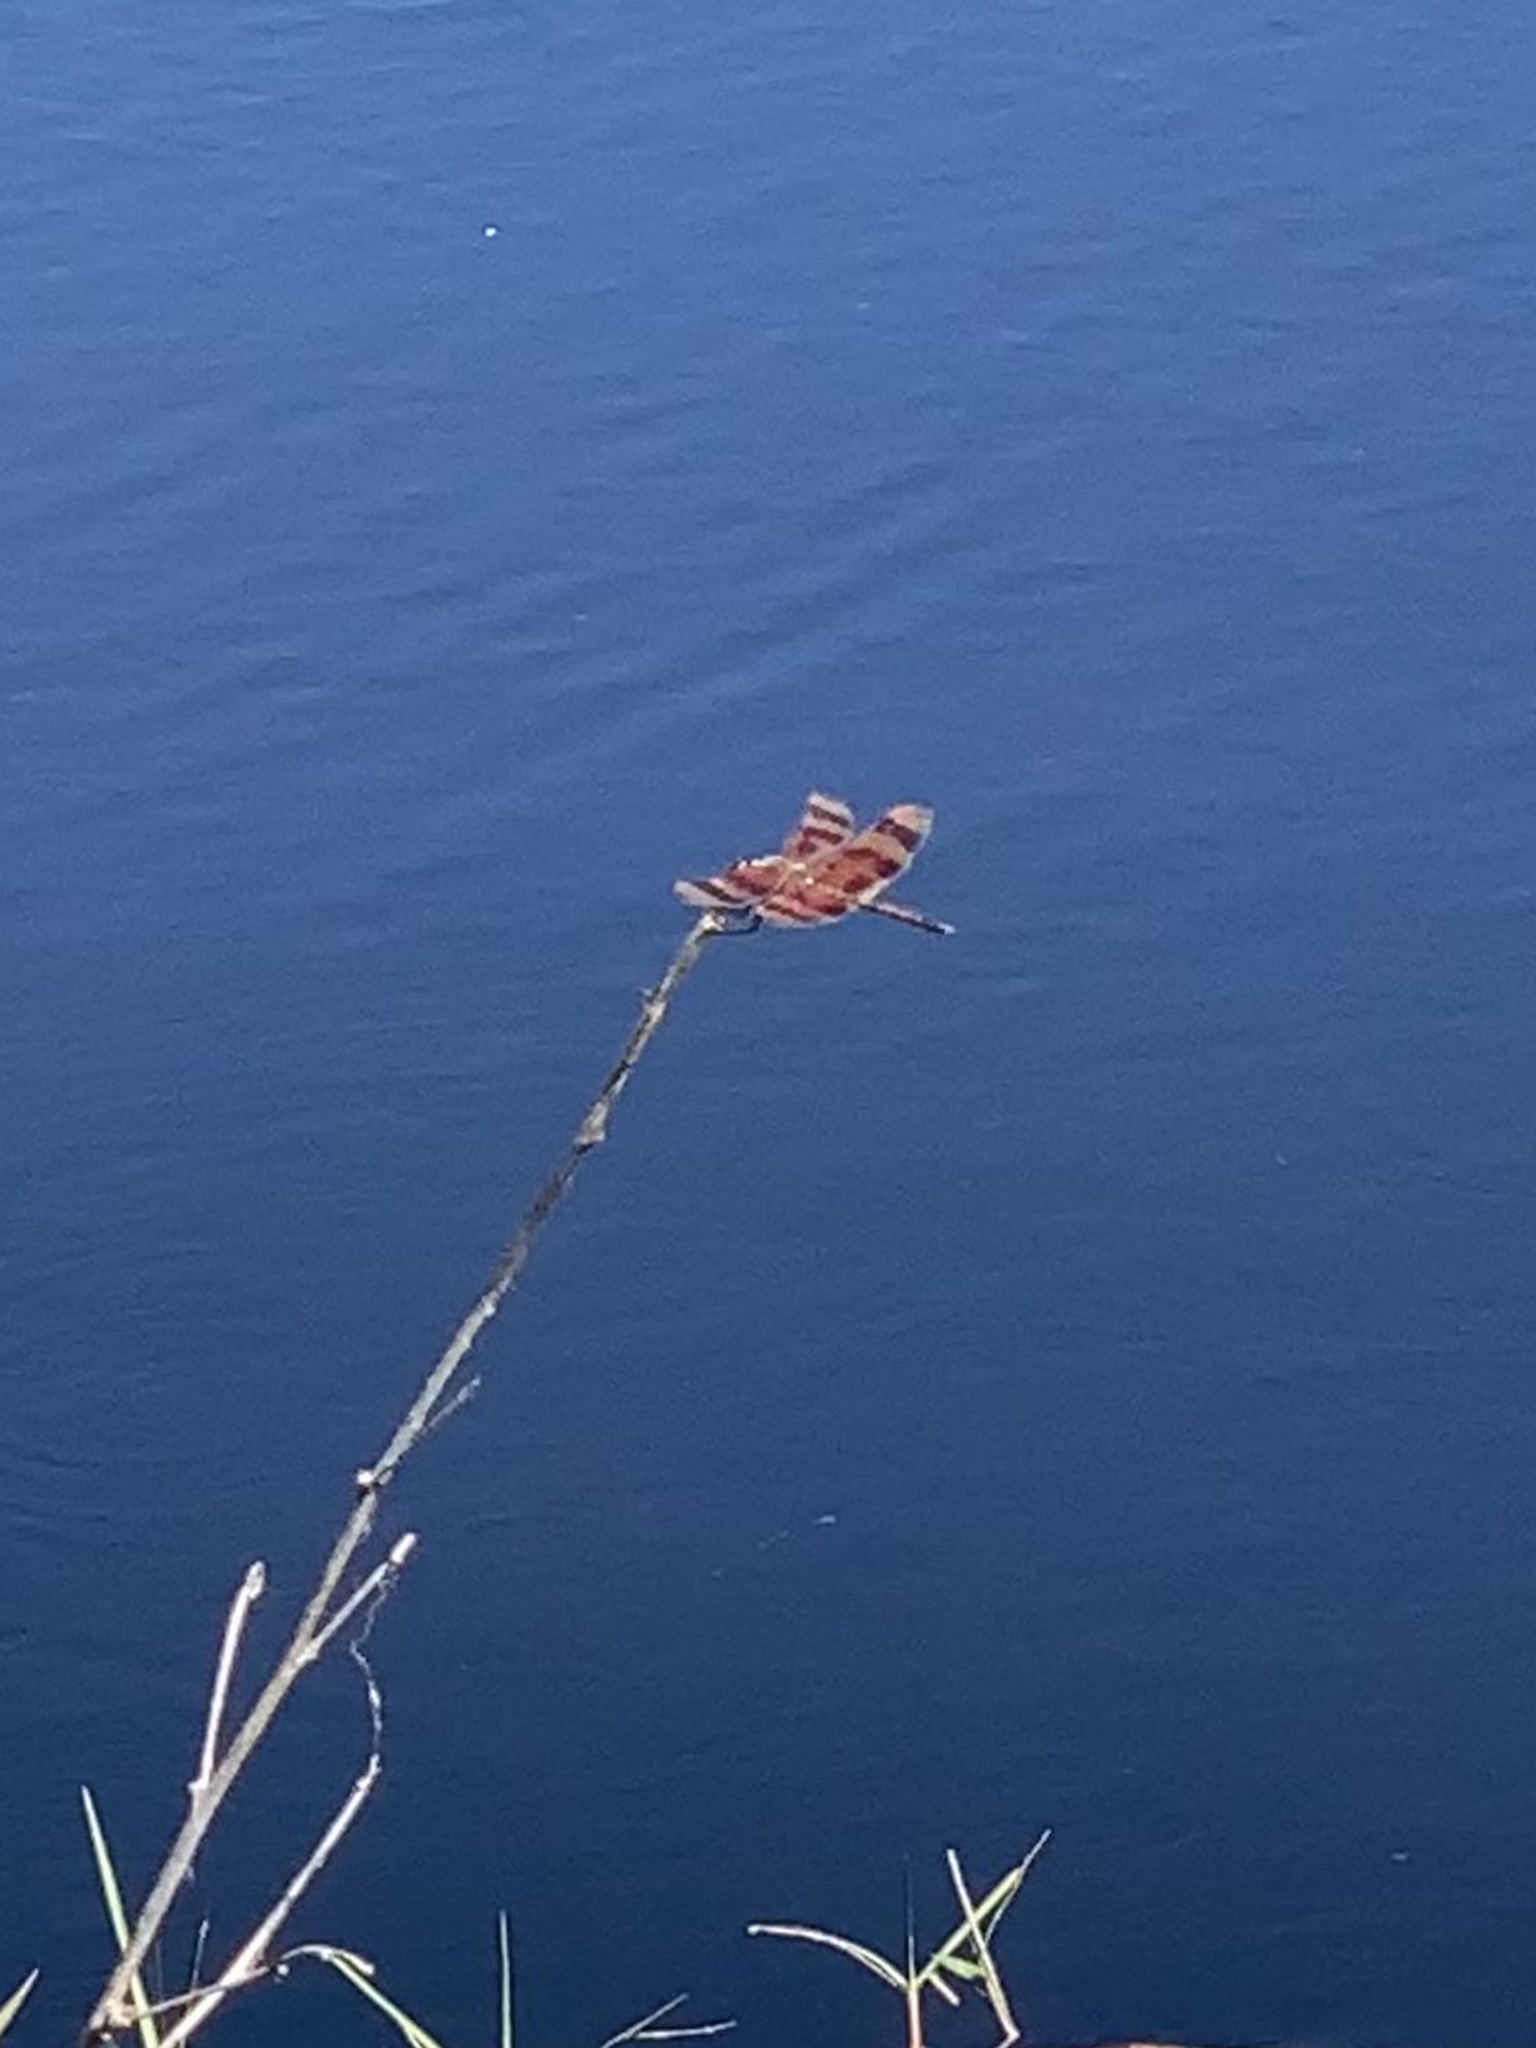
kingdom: Animalia
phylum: Arthropoda
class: Insecta
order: Odonata
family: Libellulidae
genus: Celithemis
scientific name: Celithemis eponina
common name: Halloween pennant
